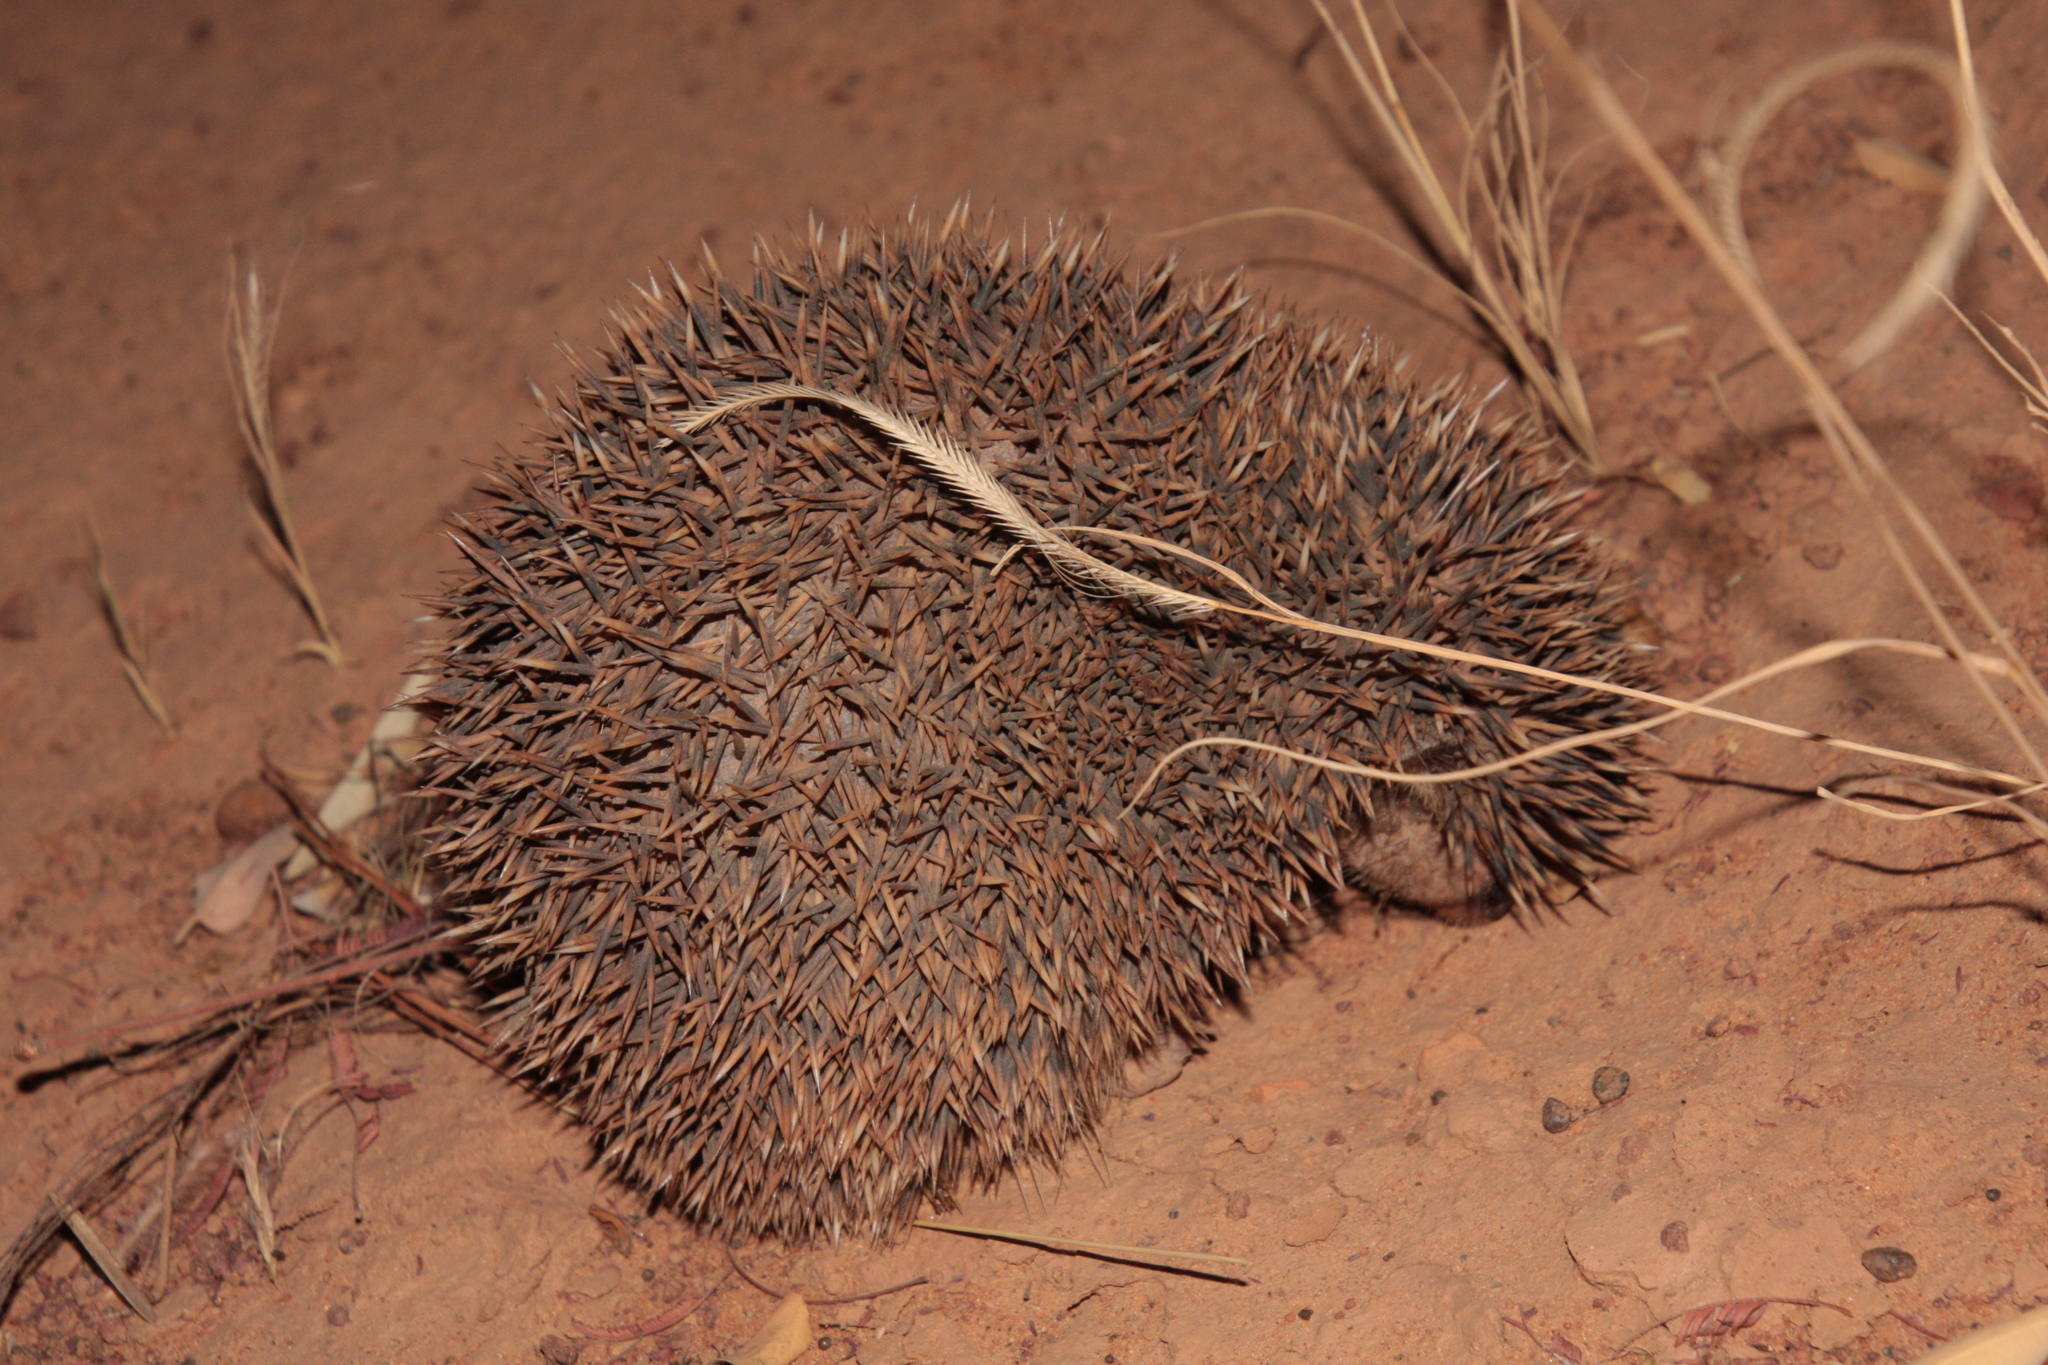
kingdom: Animalia
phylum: Chordata
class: Mammalia
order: Erinaceomorpha
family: Erinaceidae
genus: Atelerix
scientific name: Atelerix albiventris
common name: Four-toed hedgehog
